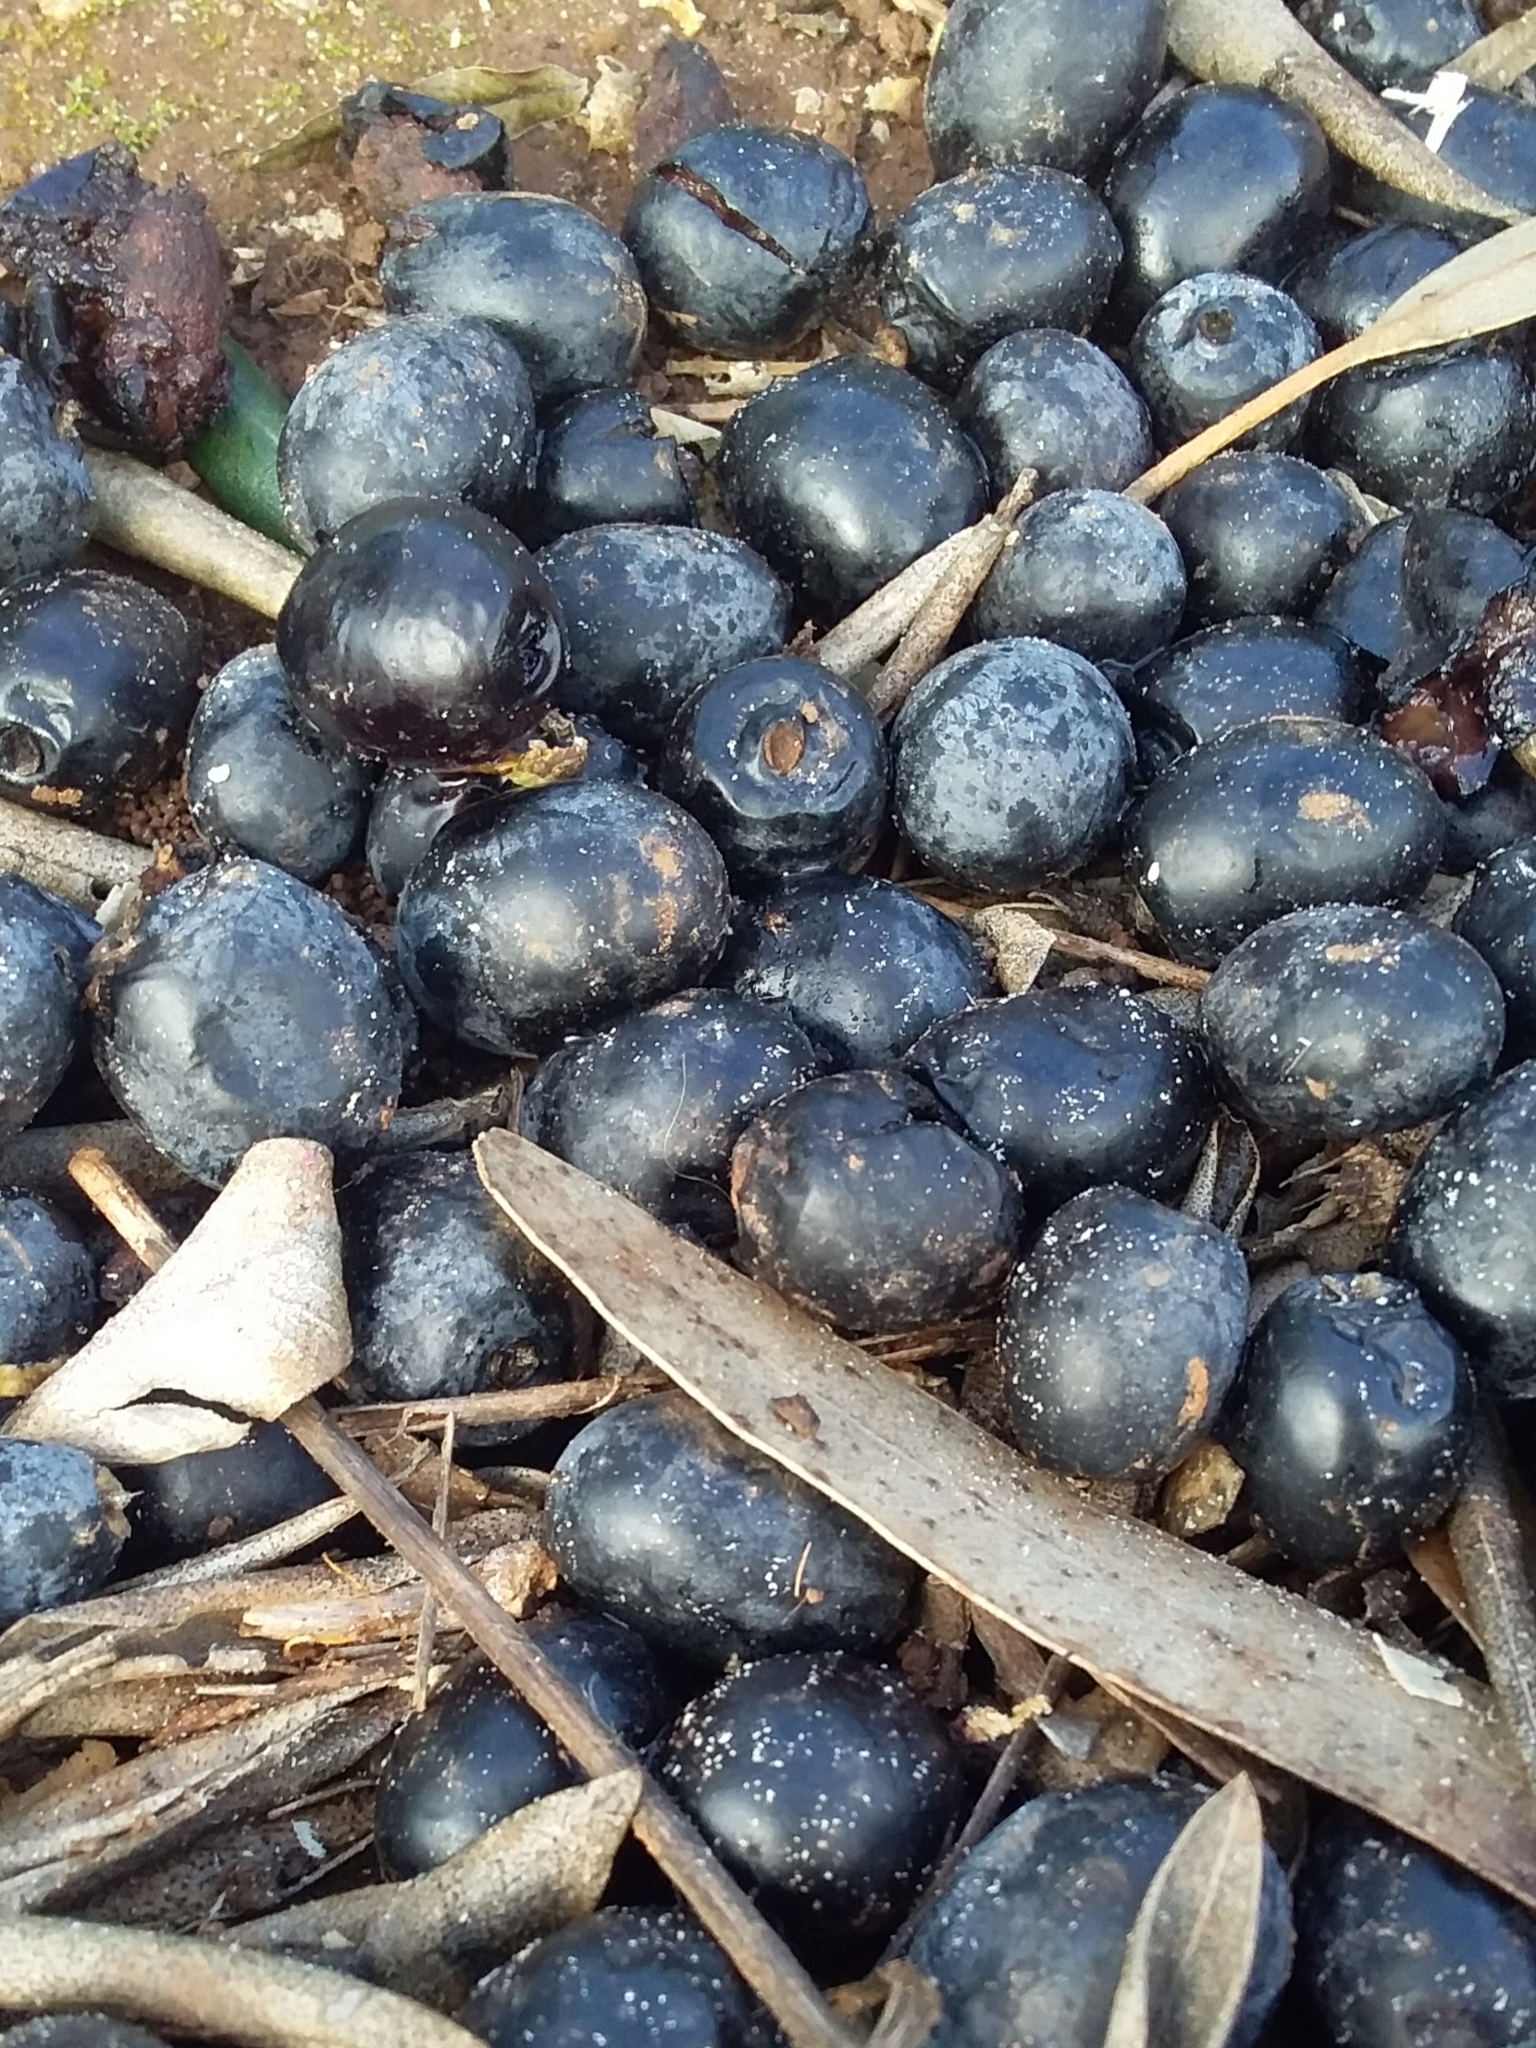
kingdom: Plantae
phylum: Tracheophyta
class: Magnoliopsida
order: Lamiales
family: Oleaceae
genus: Olea
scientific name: Olea europaea
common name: Olive
